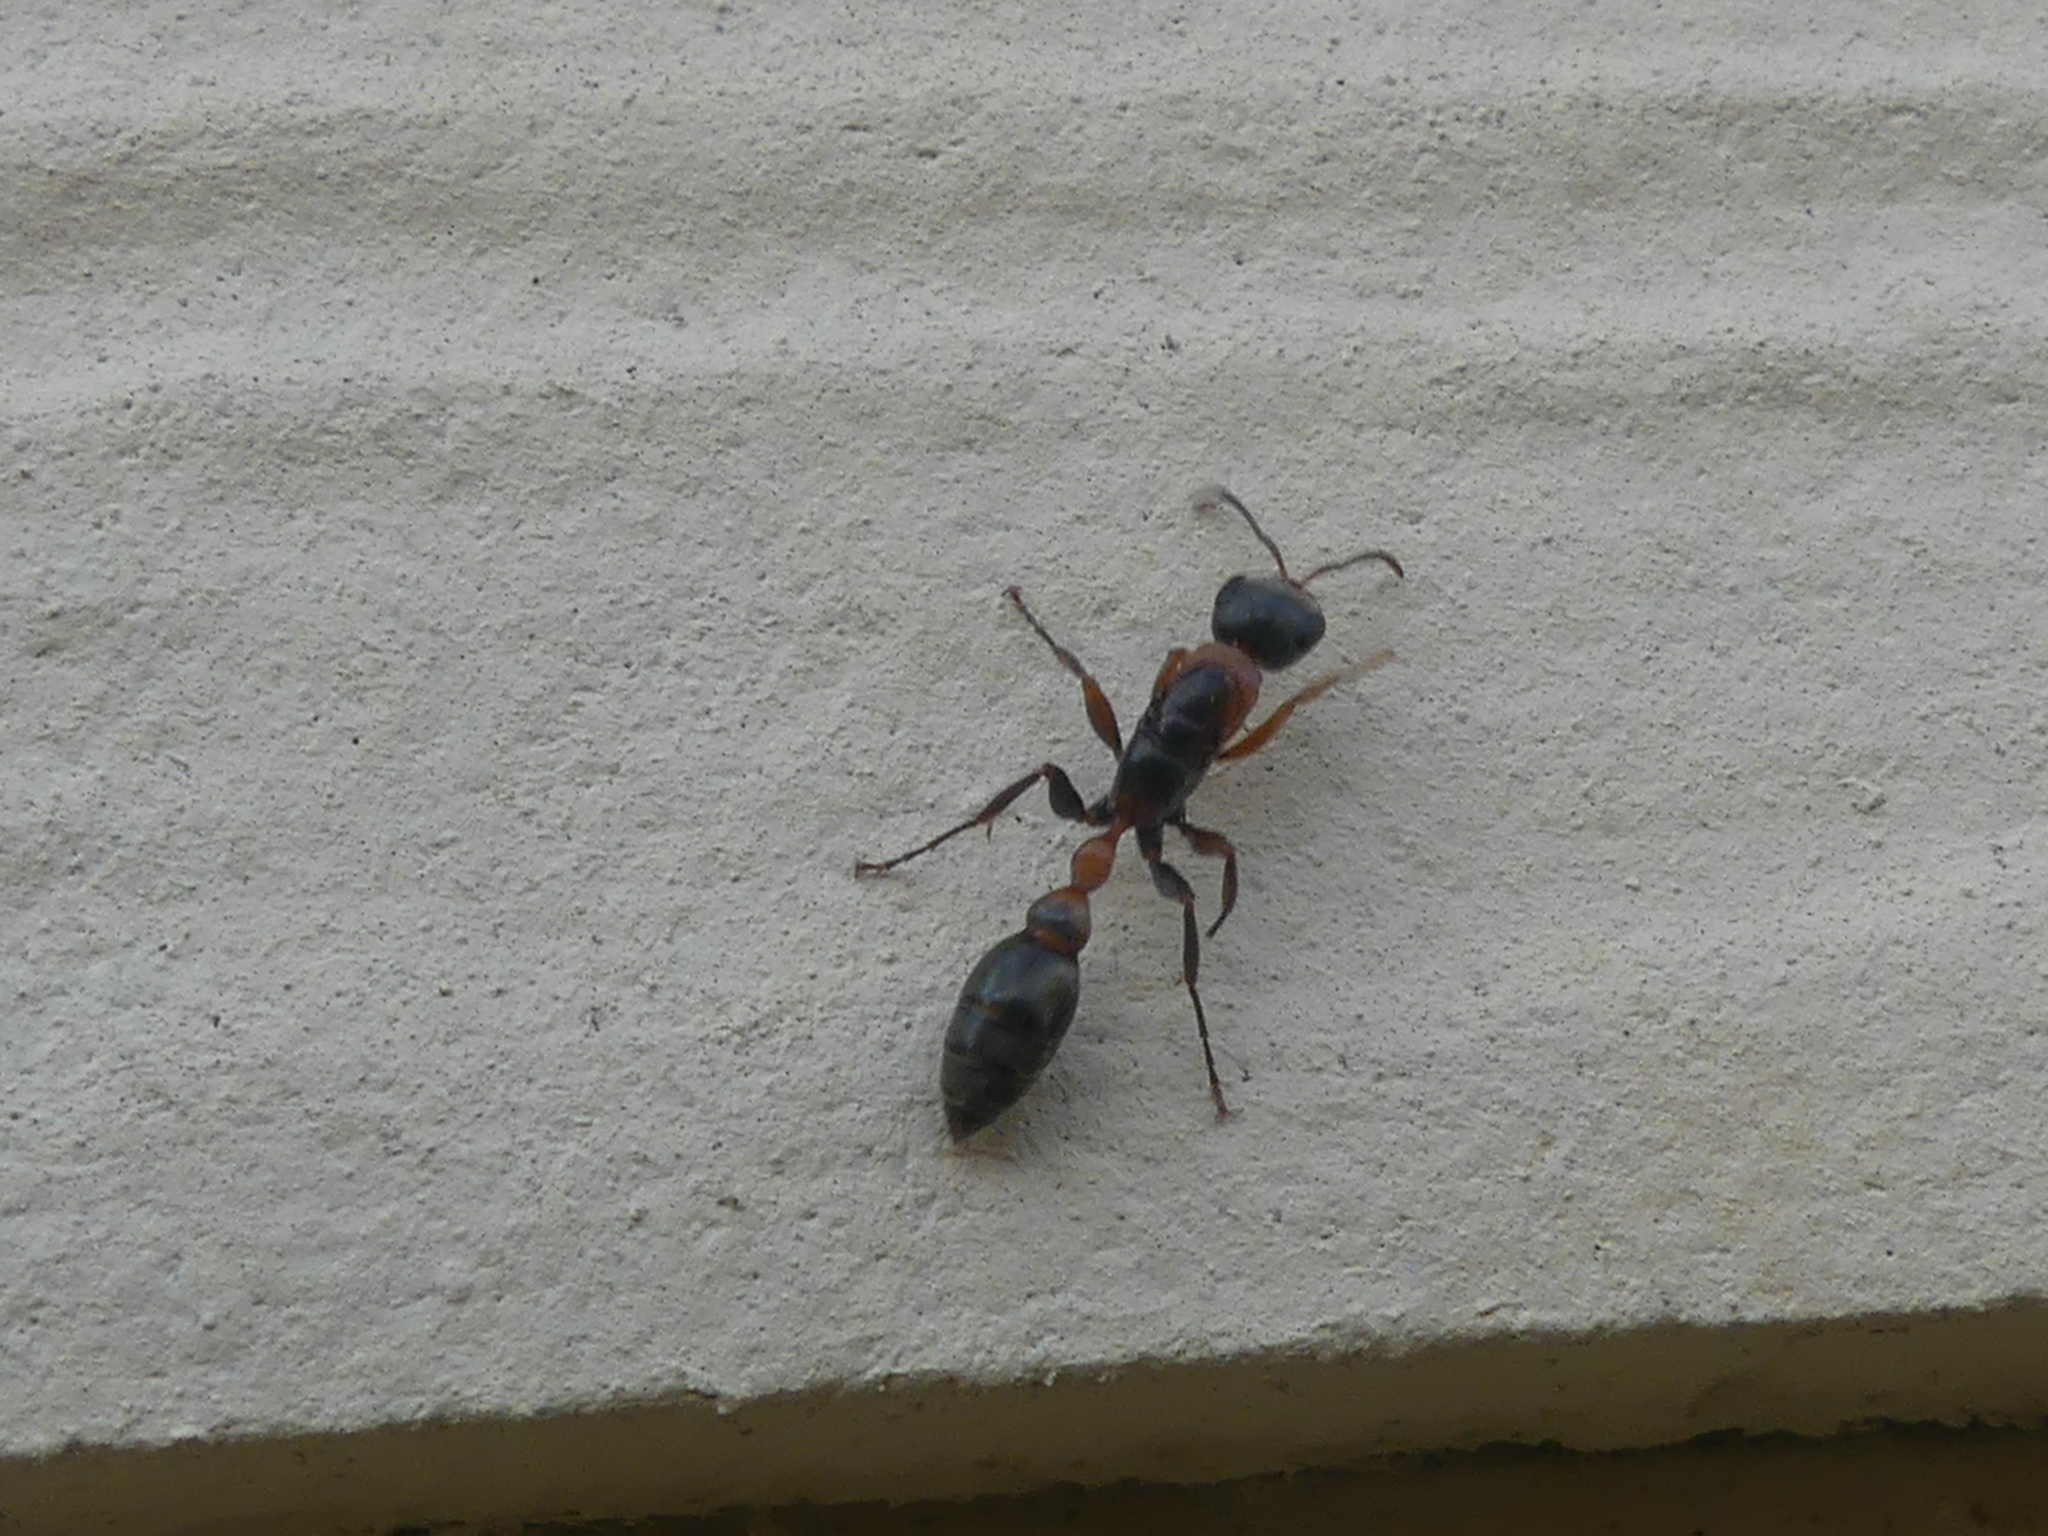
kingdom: Animalia
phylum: Arthropoda
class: Insecta
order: Hymenoptera
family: Formicidae
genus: Pseudomyrmex
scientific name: Pseudomyrmex gracilis
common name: Graceful twig ant
